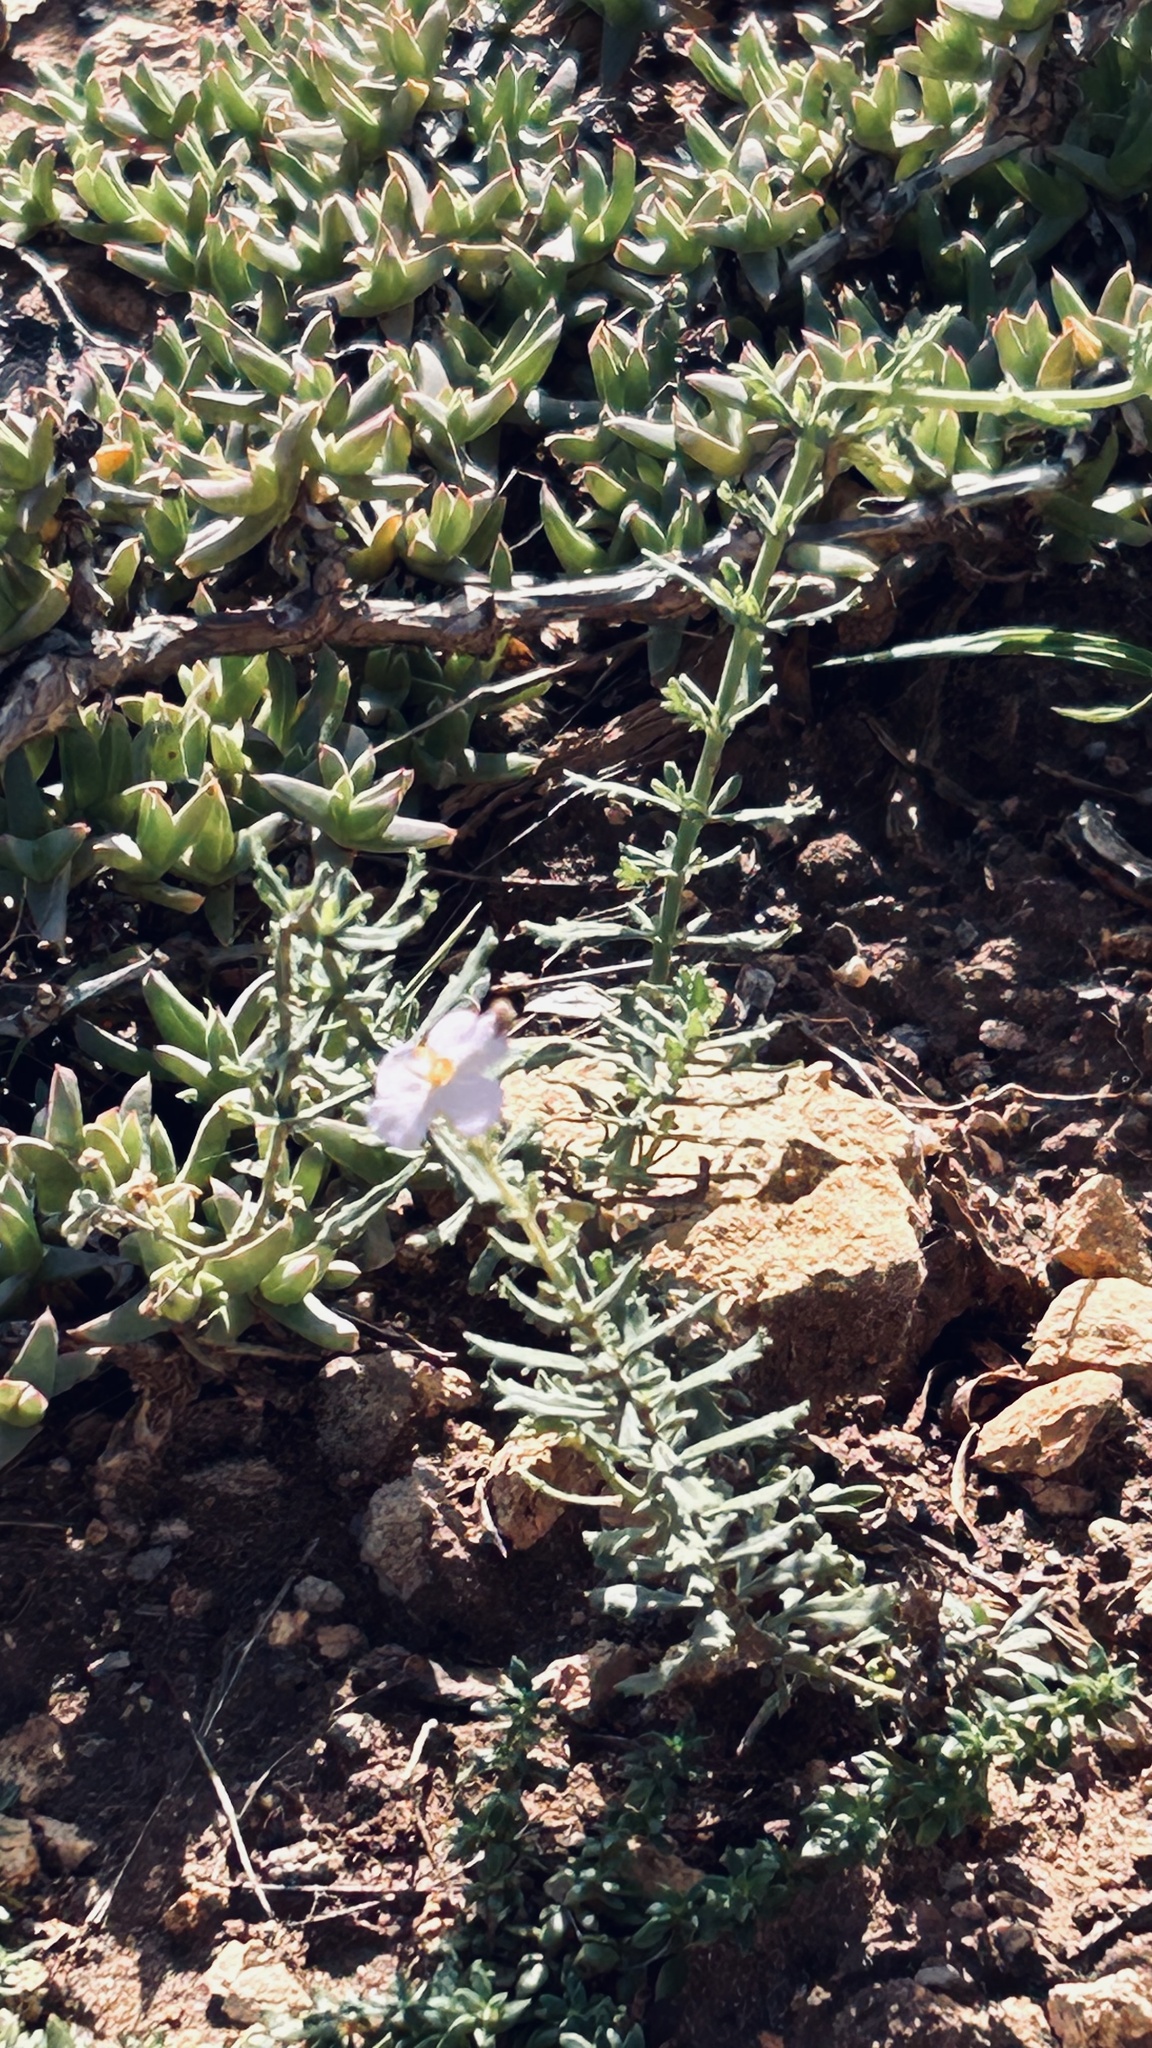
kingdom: Plantae
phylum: Tracheophyta
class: Magnoliopsida
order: Lamiales
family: Scrophulariaceae
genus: Chaenostoma
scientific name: Chaenostoma caeruleum
